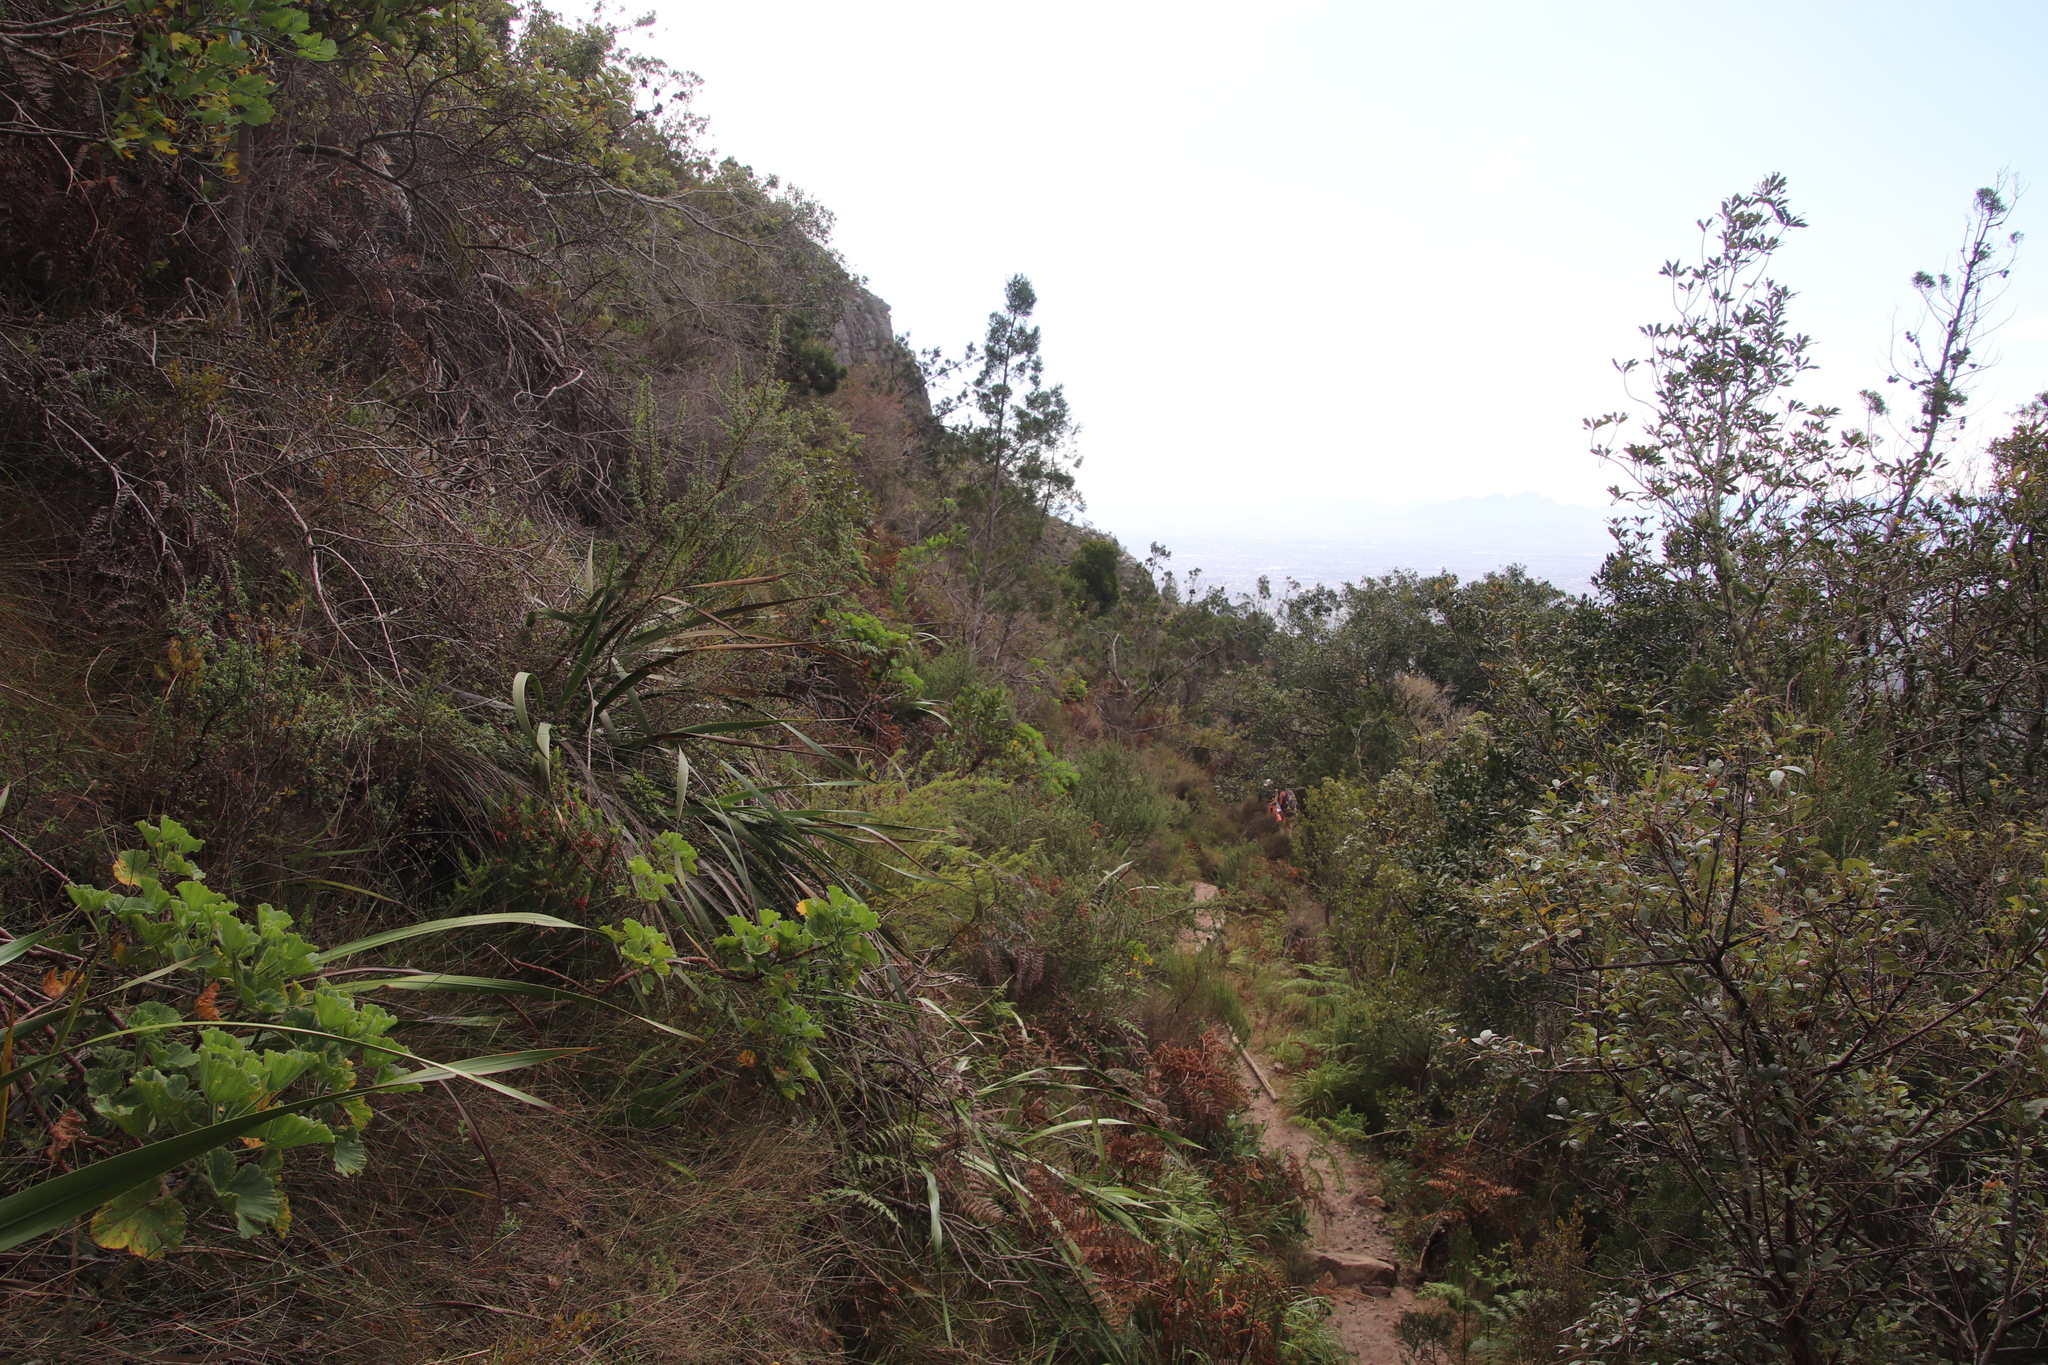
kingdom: Plantae
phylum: Tracheophyta
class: Pinopsida
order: Pinales
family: Cupressaceae
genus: Widdringtonia
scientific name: Widdringtonia nodiflora
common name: Cape cypress
